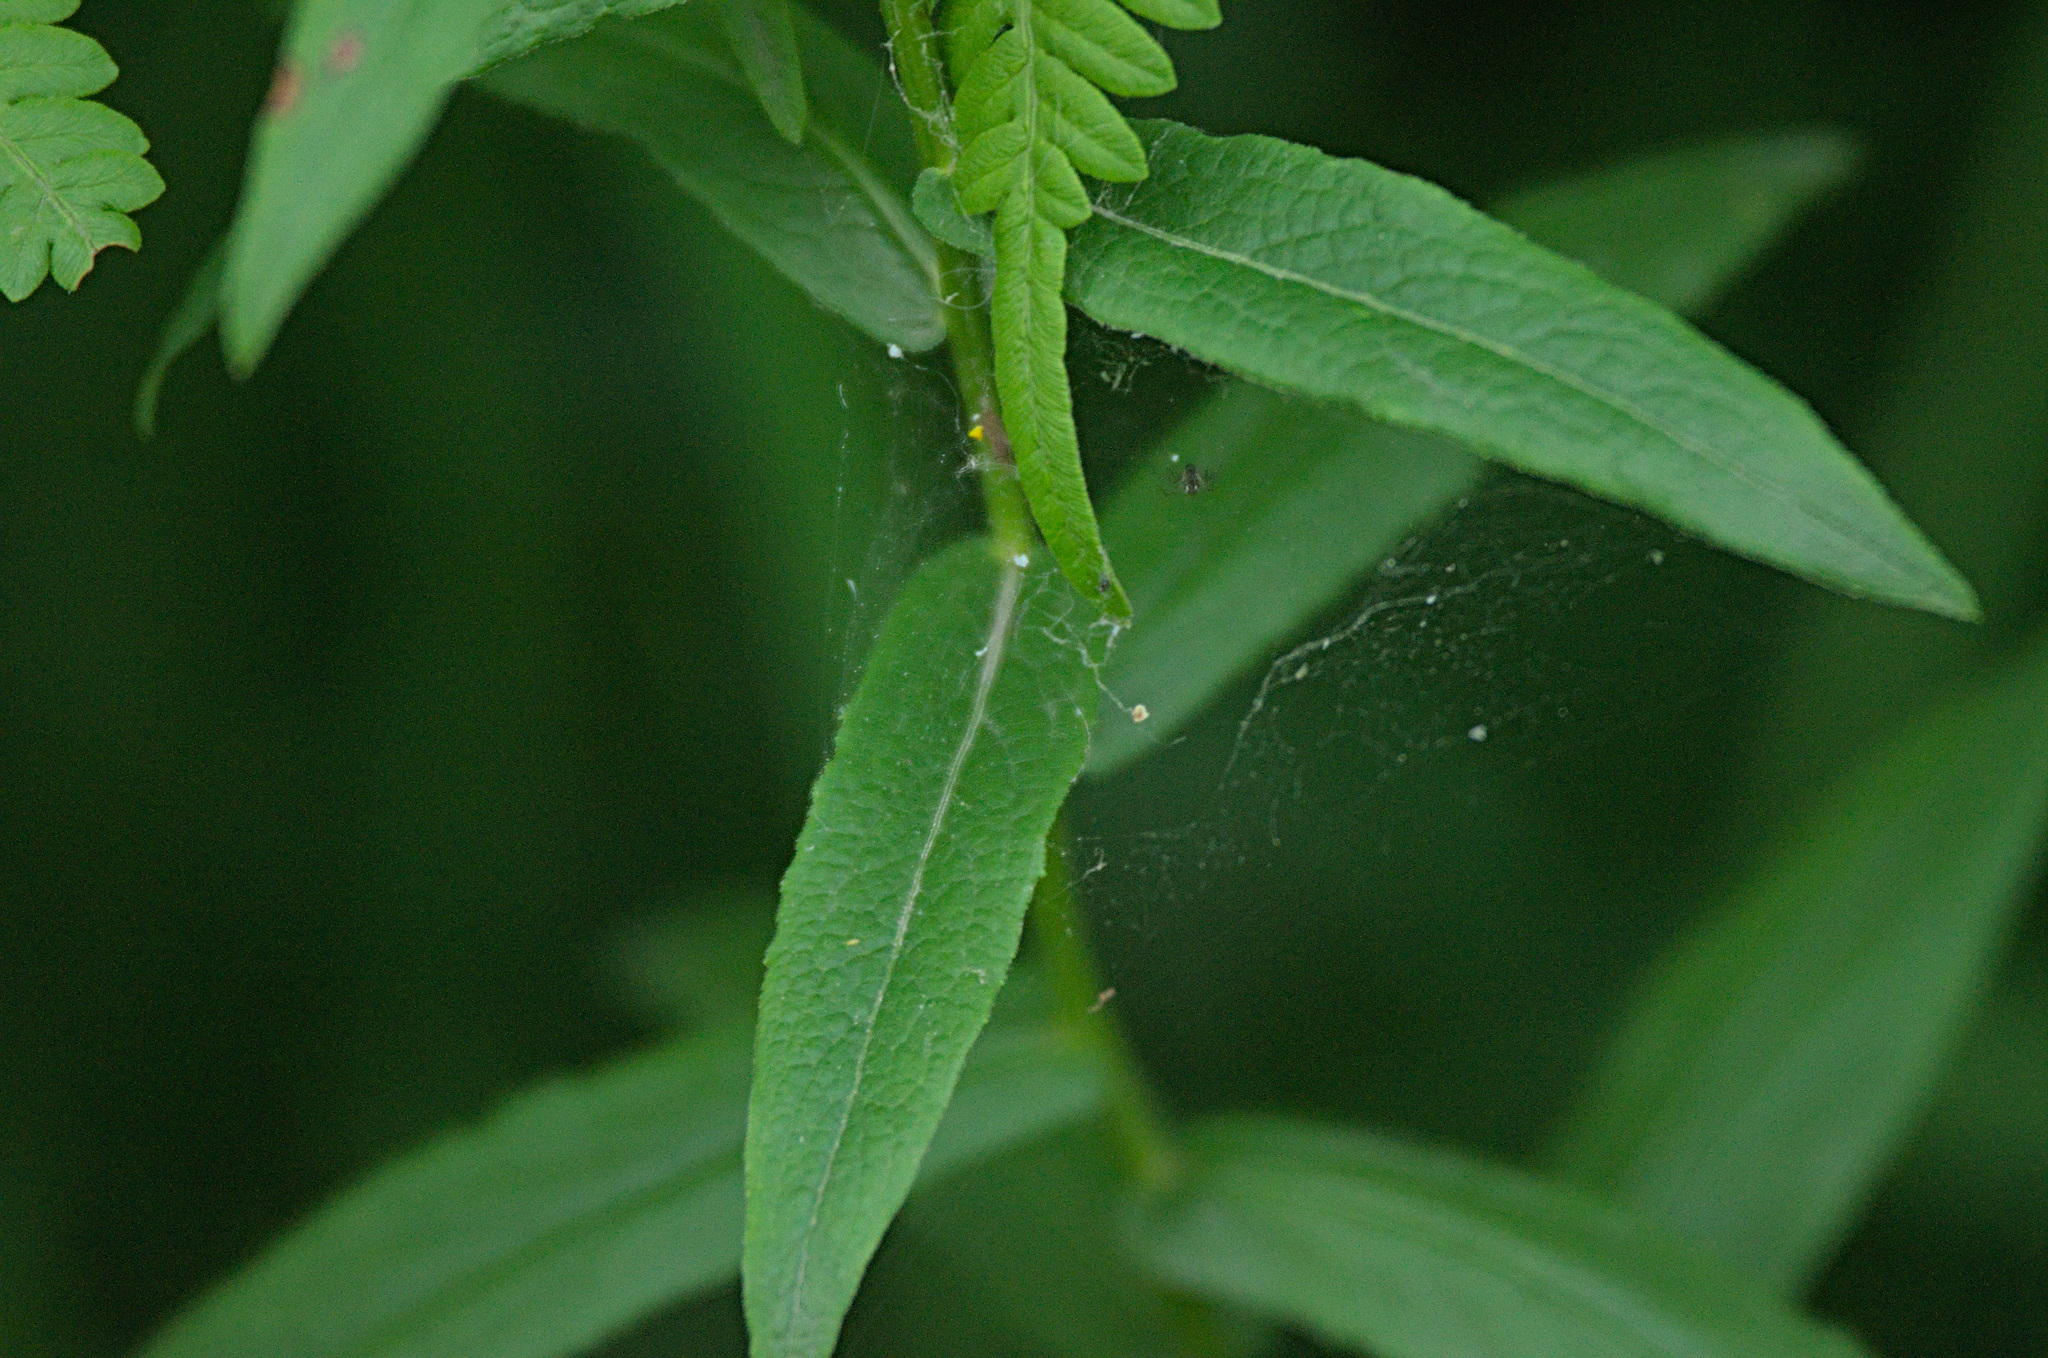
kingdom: Plantae
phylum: Tracheophyta
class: Magnoliopsida
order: Asterales
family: Asteraceae
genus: Pentanema
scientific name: Pentanema salicinum
